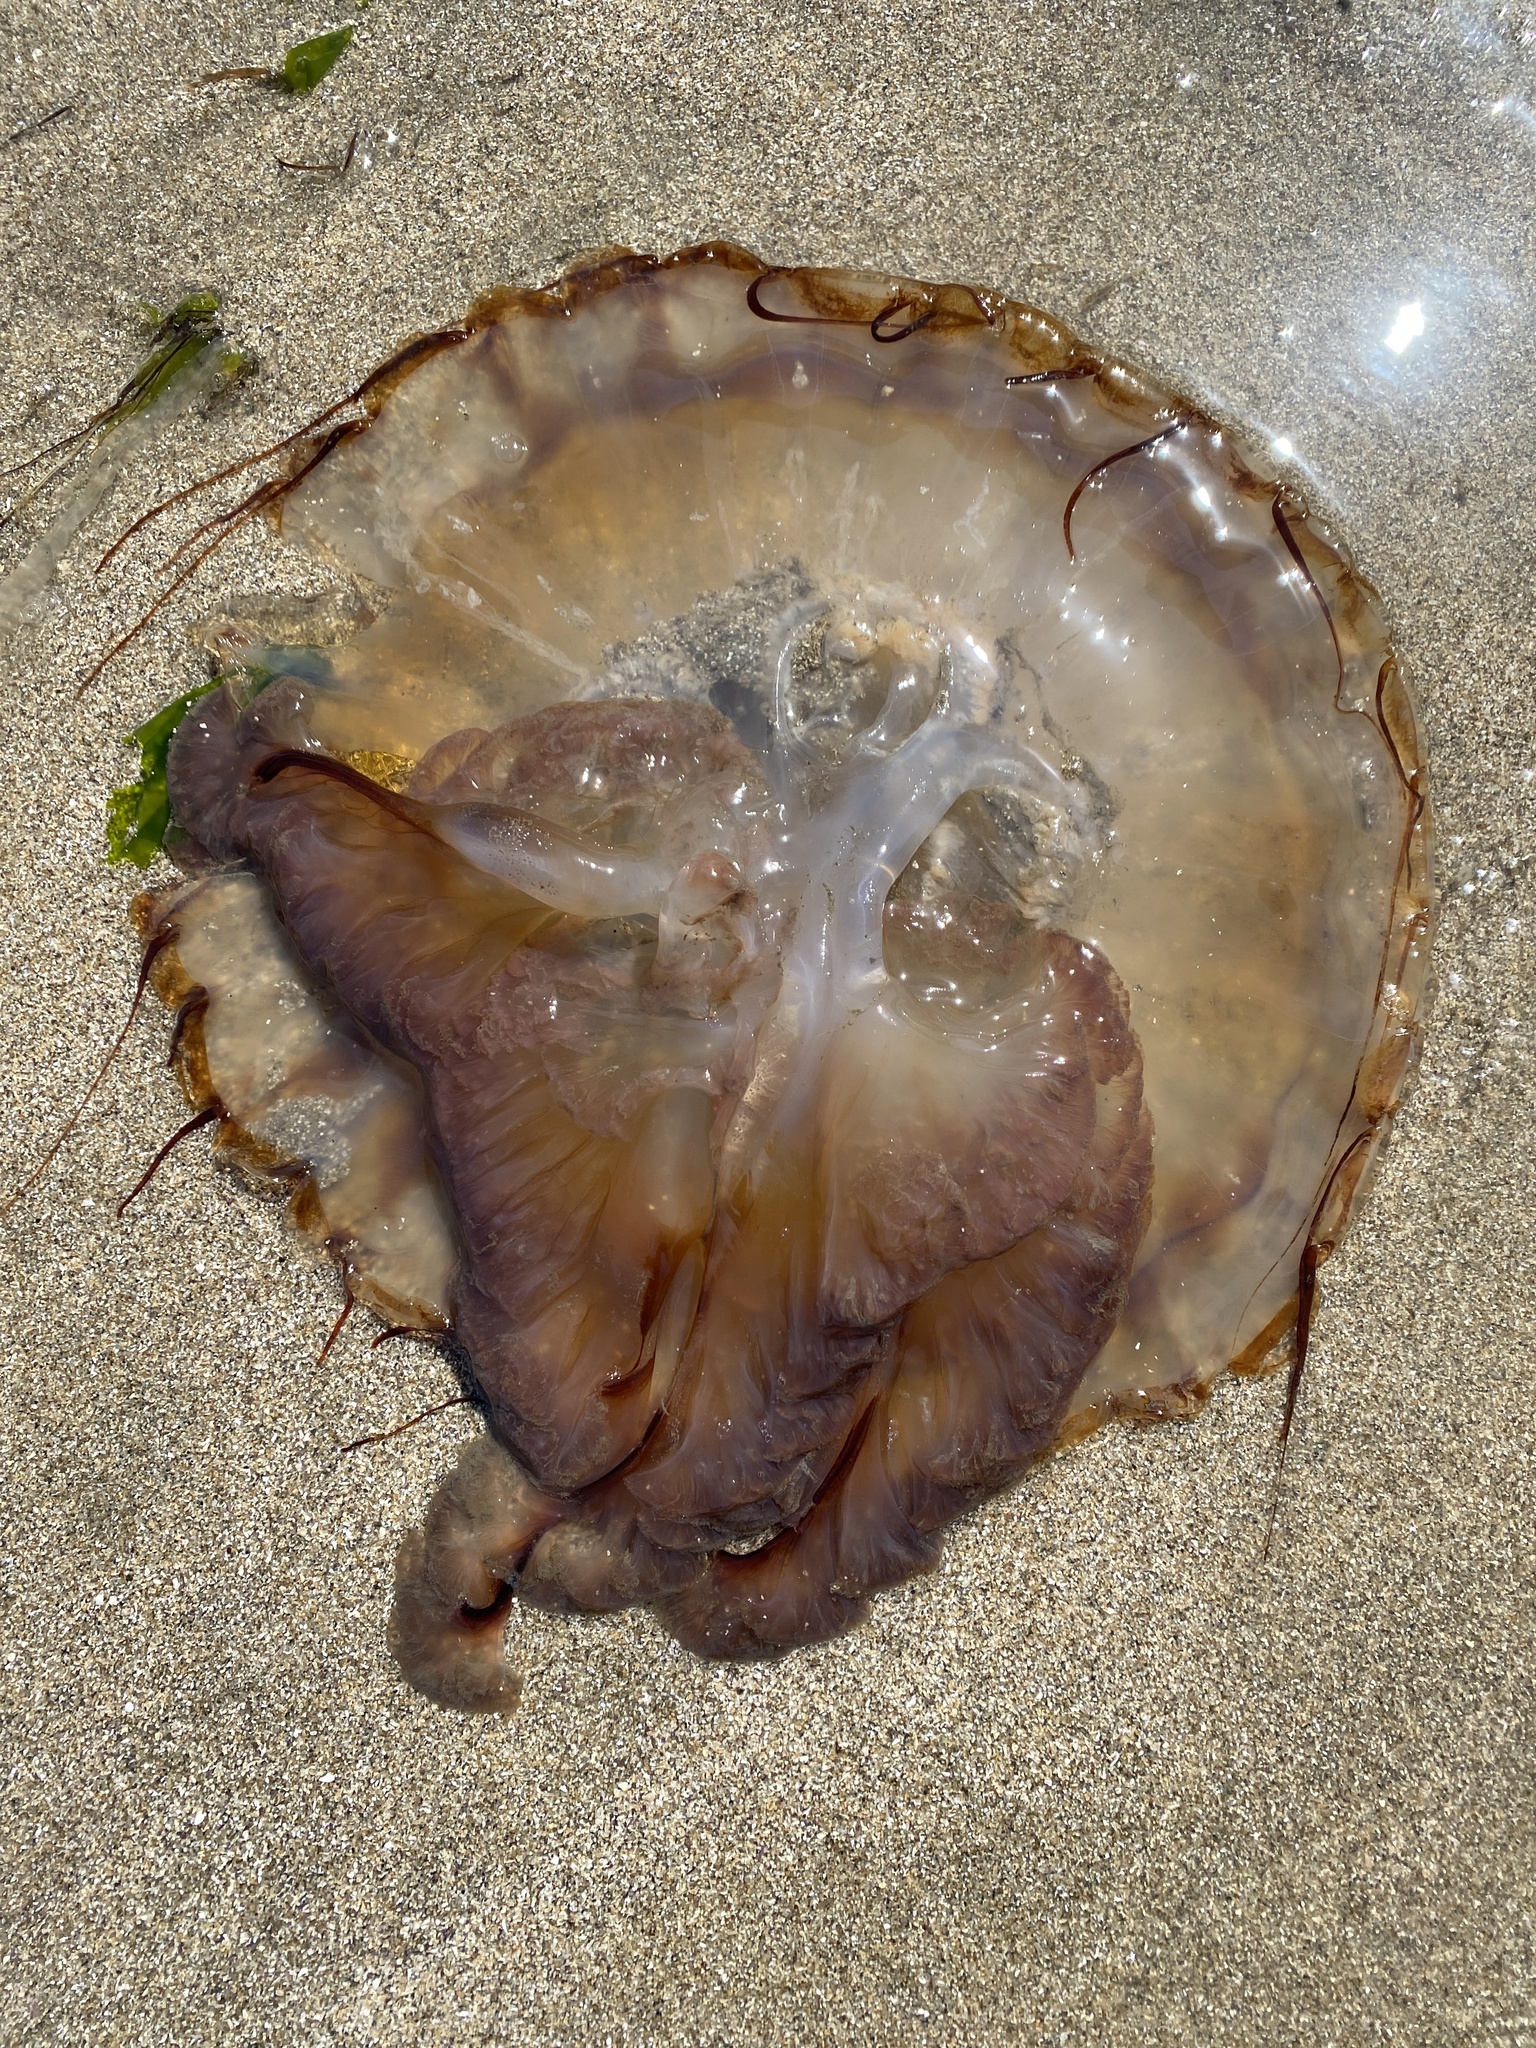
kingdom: Animalia
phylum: Cnidaria
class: Scyphozoa
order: Semaeostomeae
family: Pelagiidae
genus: Chrysaora
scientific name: Chrysaora fuscescens
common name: Sea nettle
